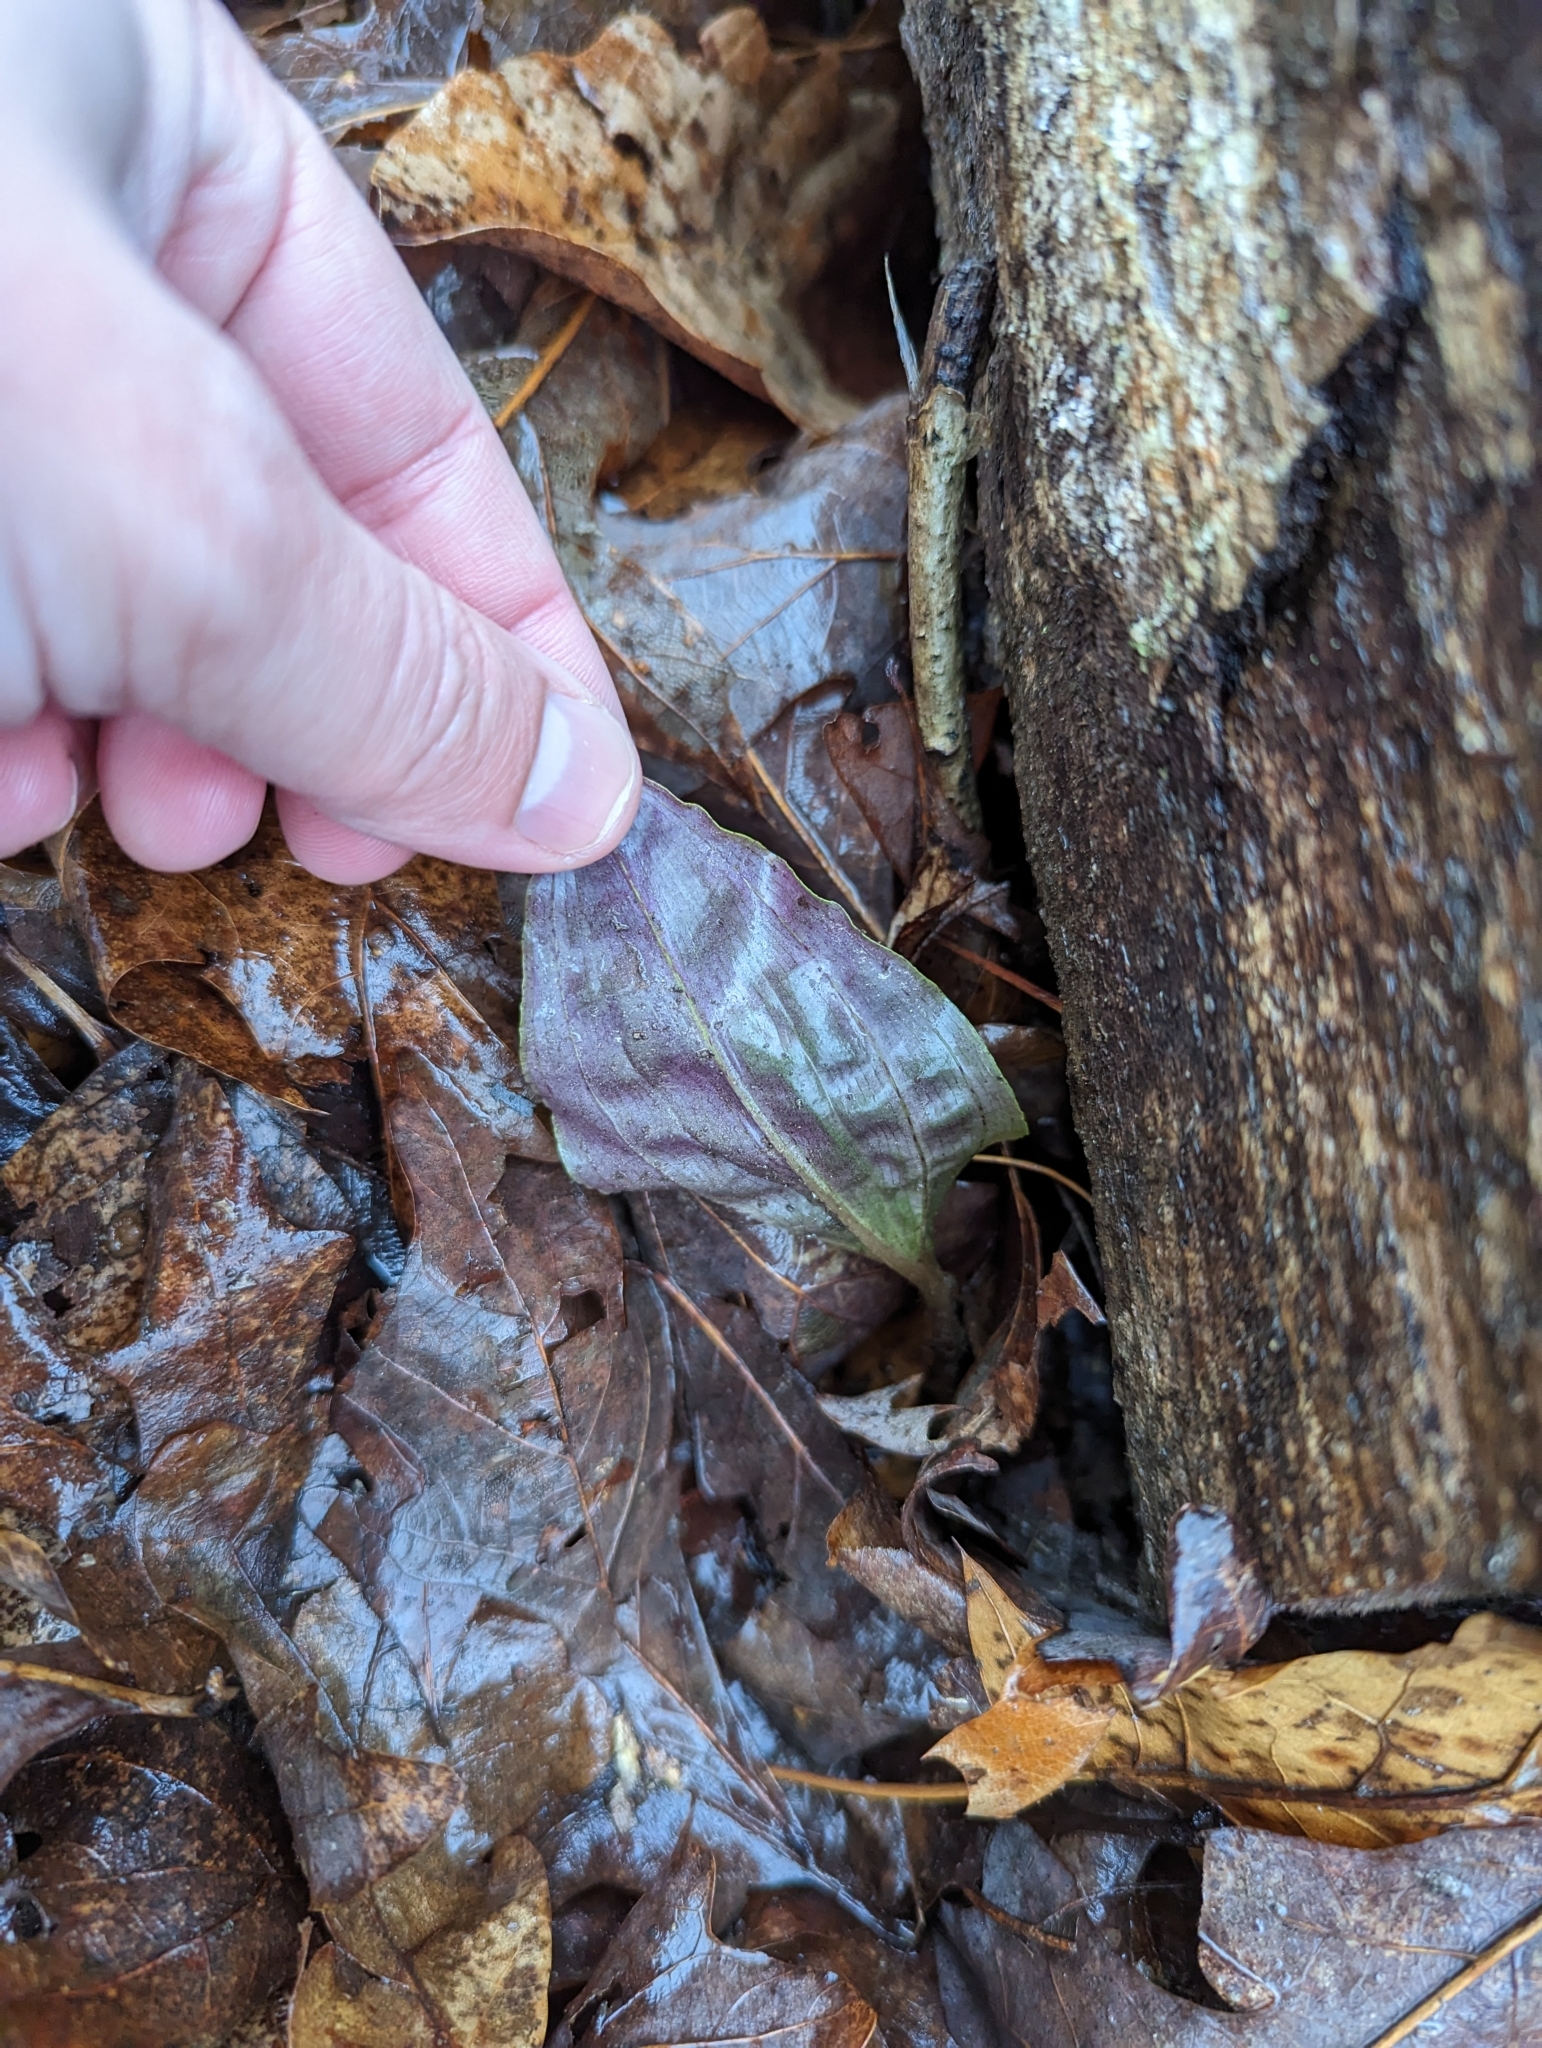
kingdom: Plantae
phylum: Tracheophyta
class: Liliopsida
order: Asparagales
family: Orchidaceae
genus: Tipularia
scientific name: Tipularia discolor
